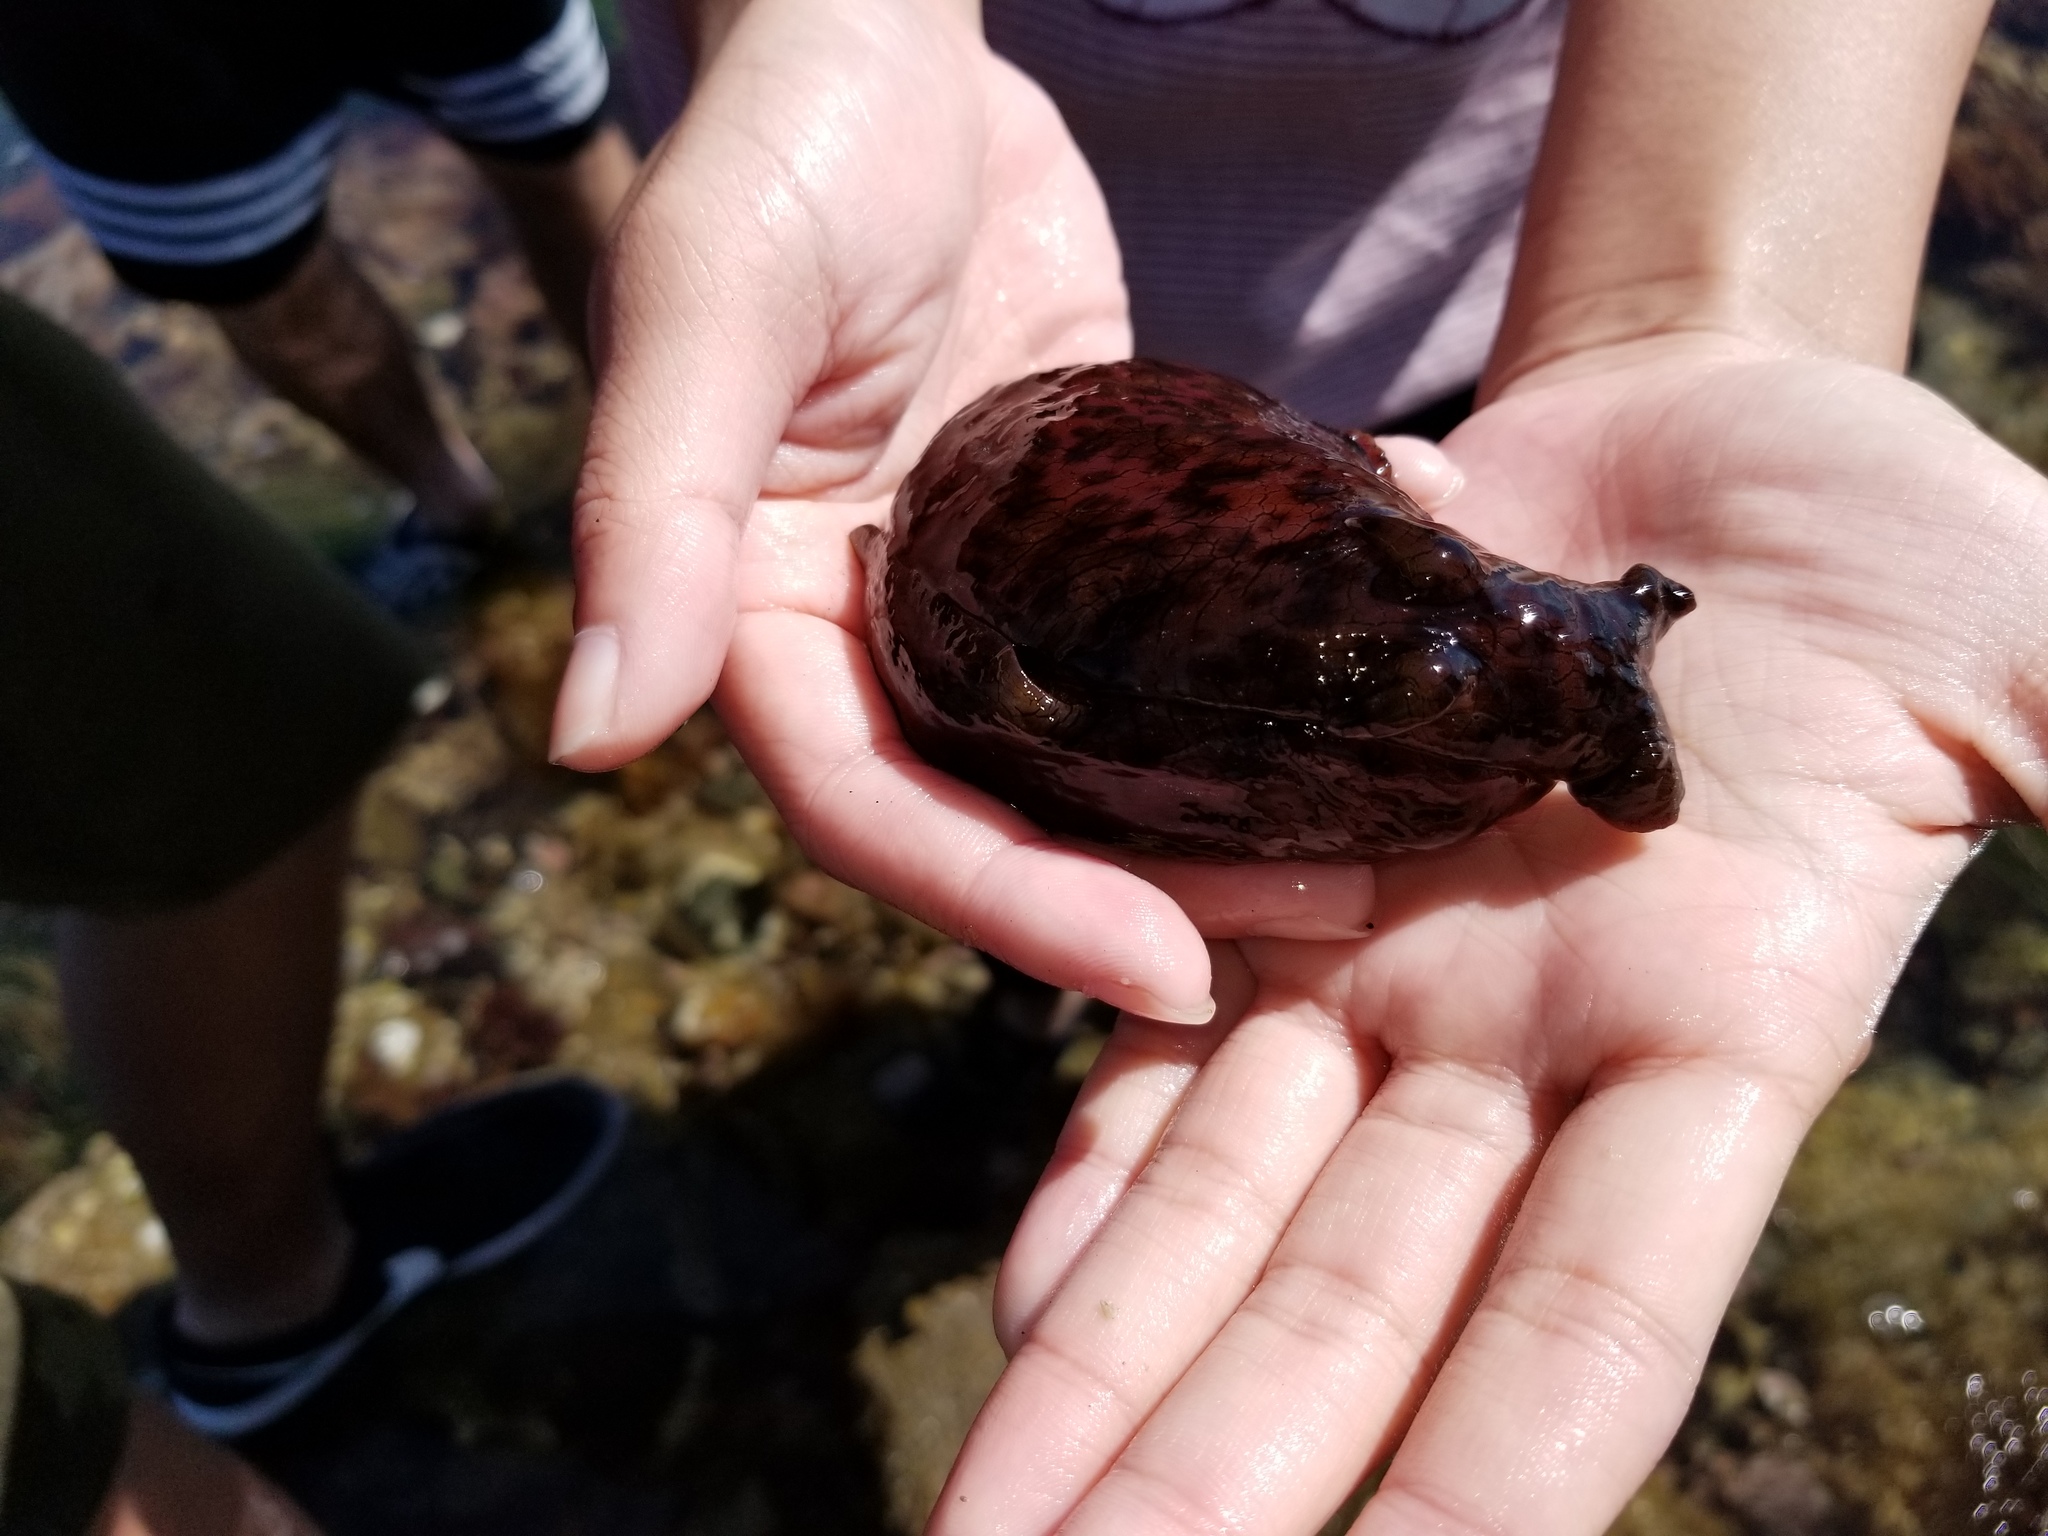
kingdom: Animalia
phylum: Mollusca
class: Gastropoda
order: Aplysiida
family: Aplysiidae
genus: Aplysia
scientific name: Aplysia californica
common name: California seahare
